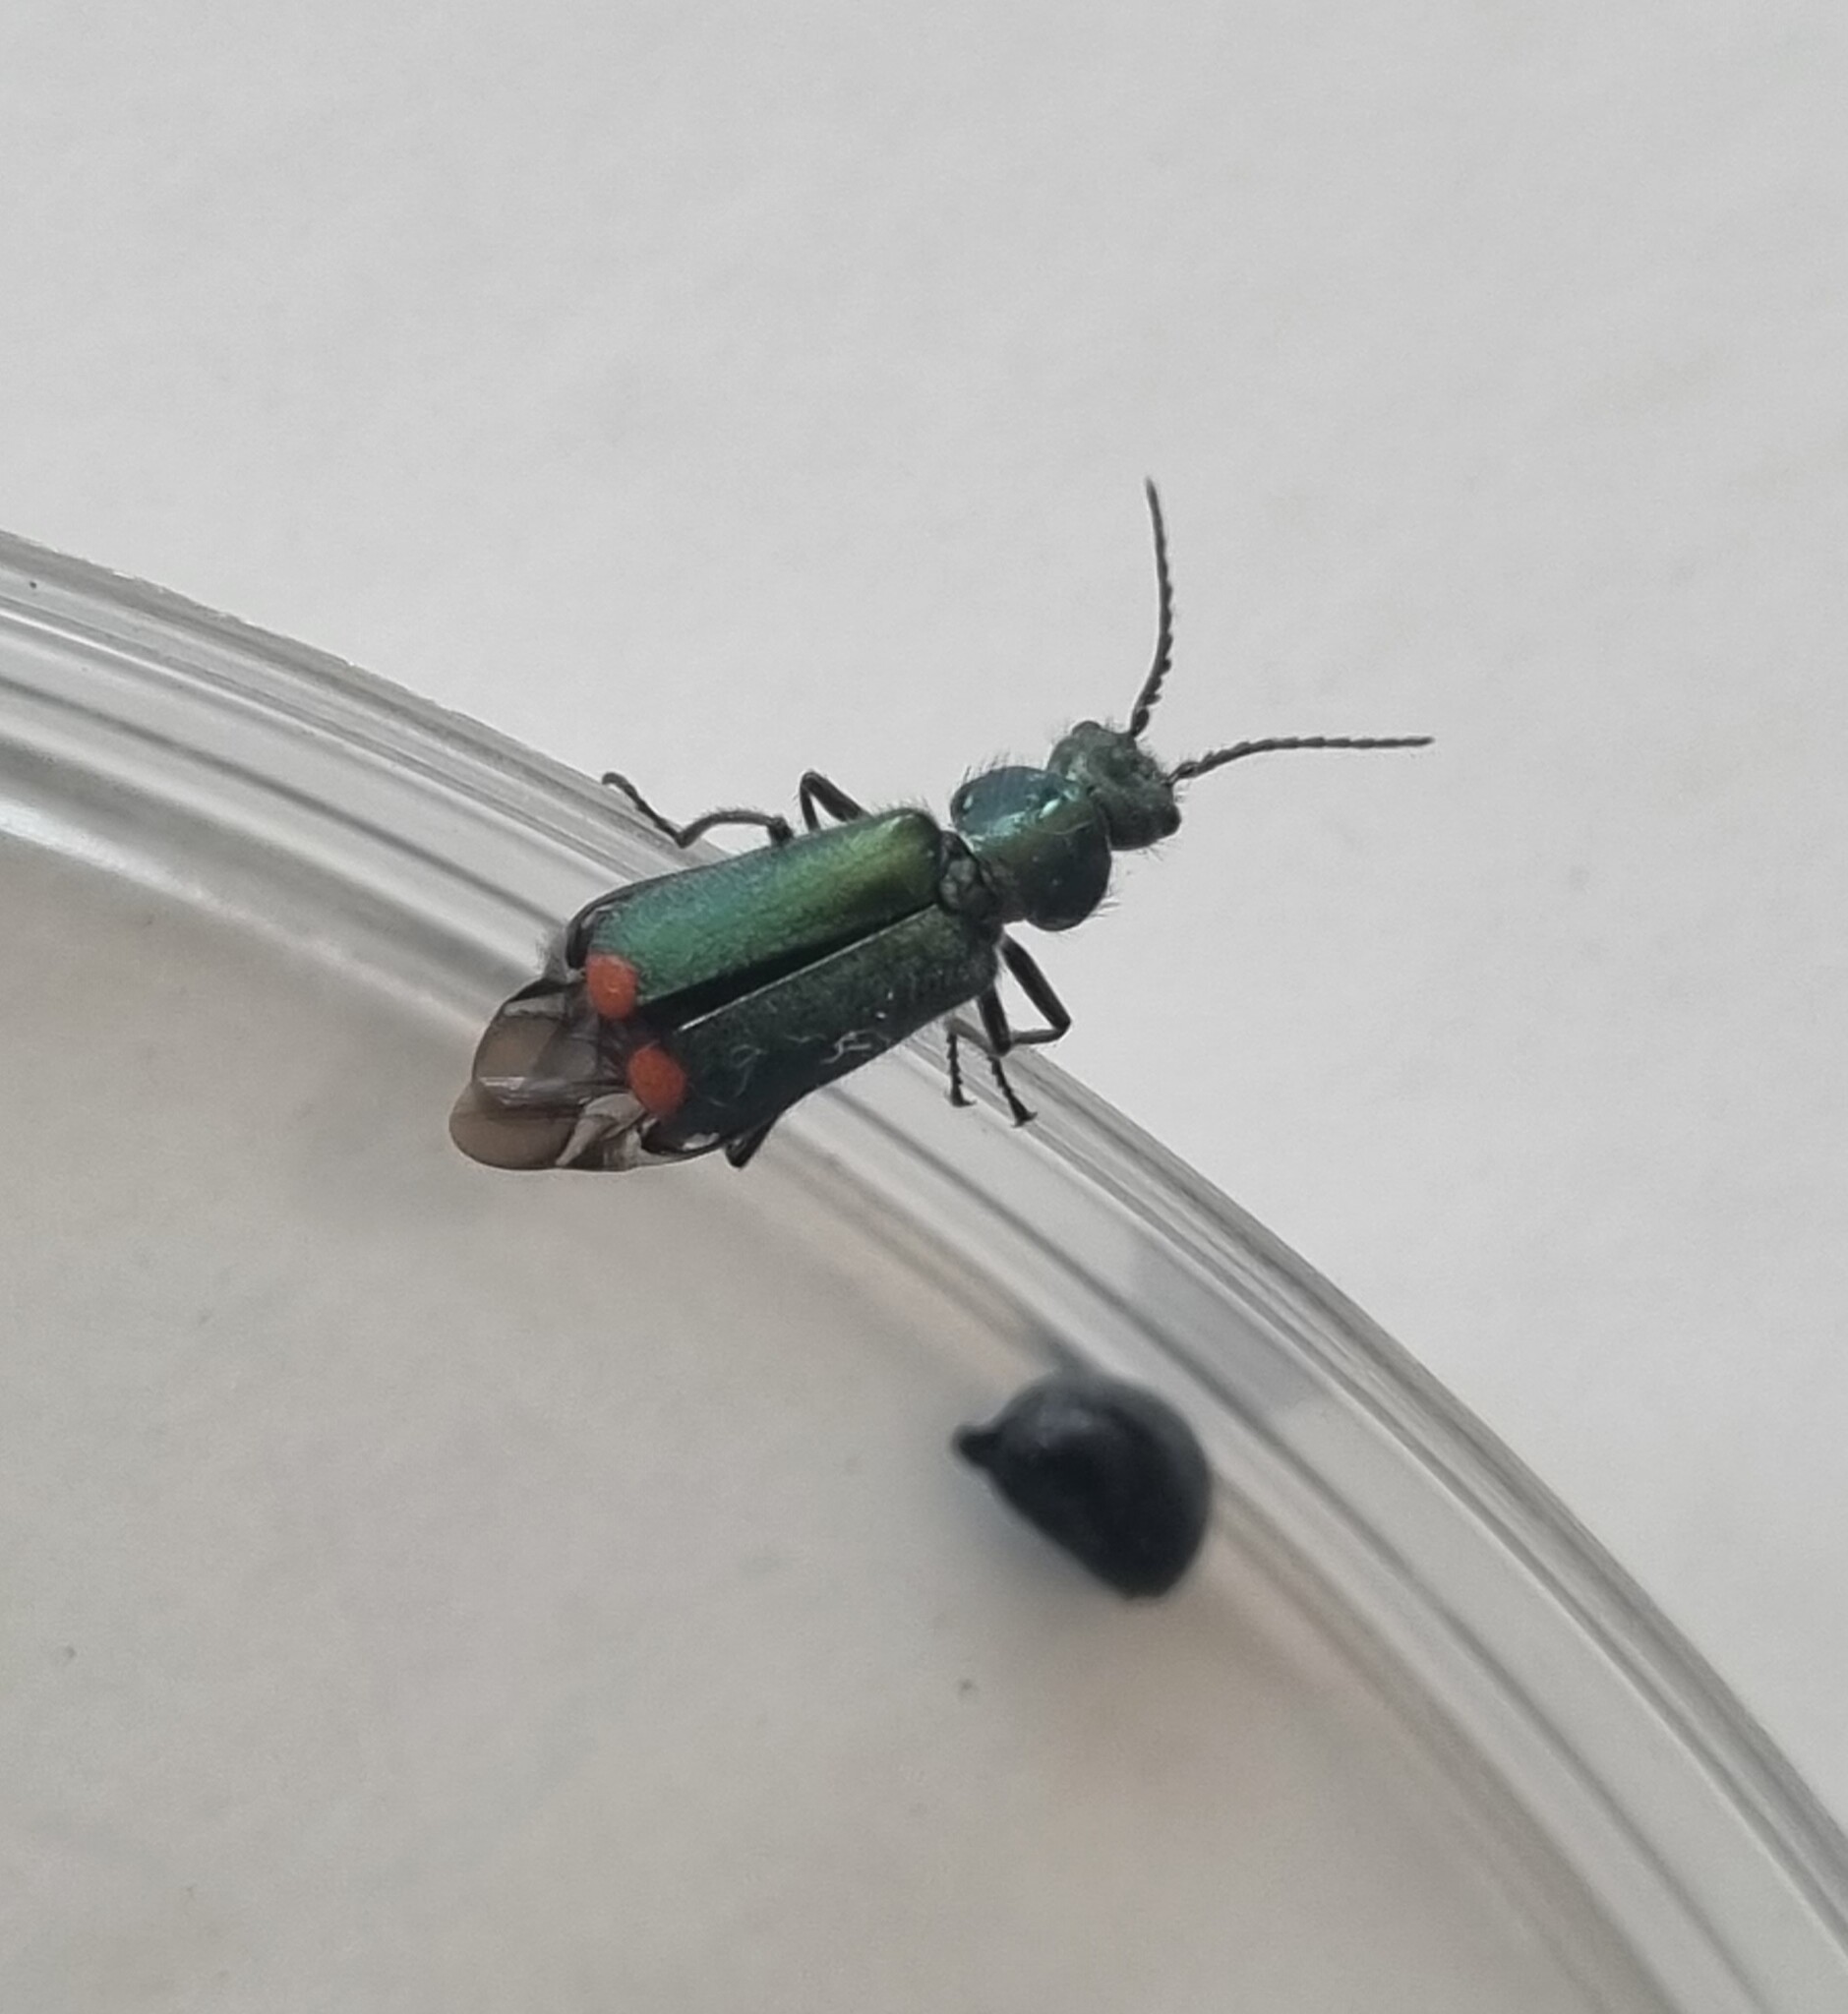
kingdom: Animalia
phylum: Arthropoda
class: Insecta
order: Coleoptera
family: Melyridae
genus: Malachius
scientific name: Malachius bipustulatus
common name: Malachite beetle
